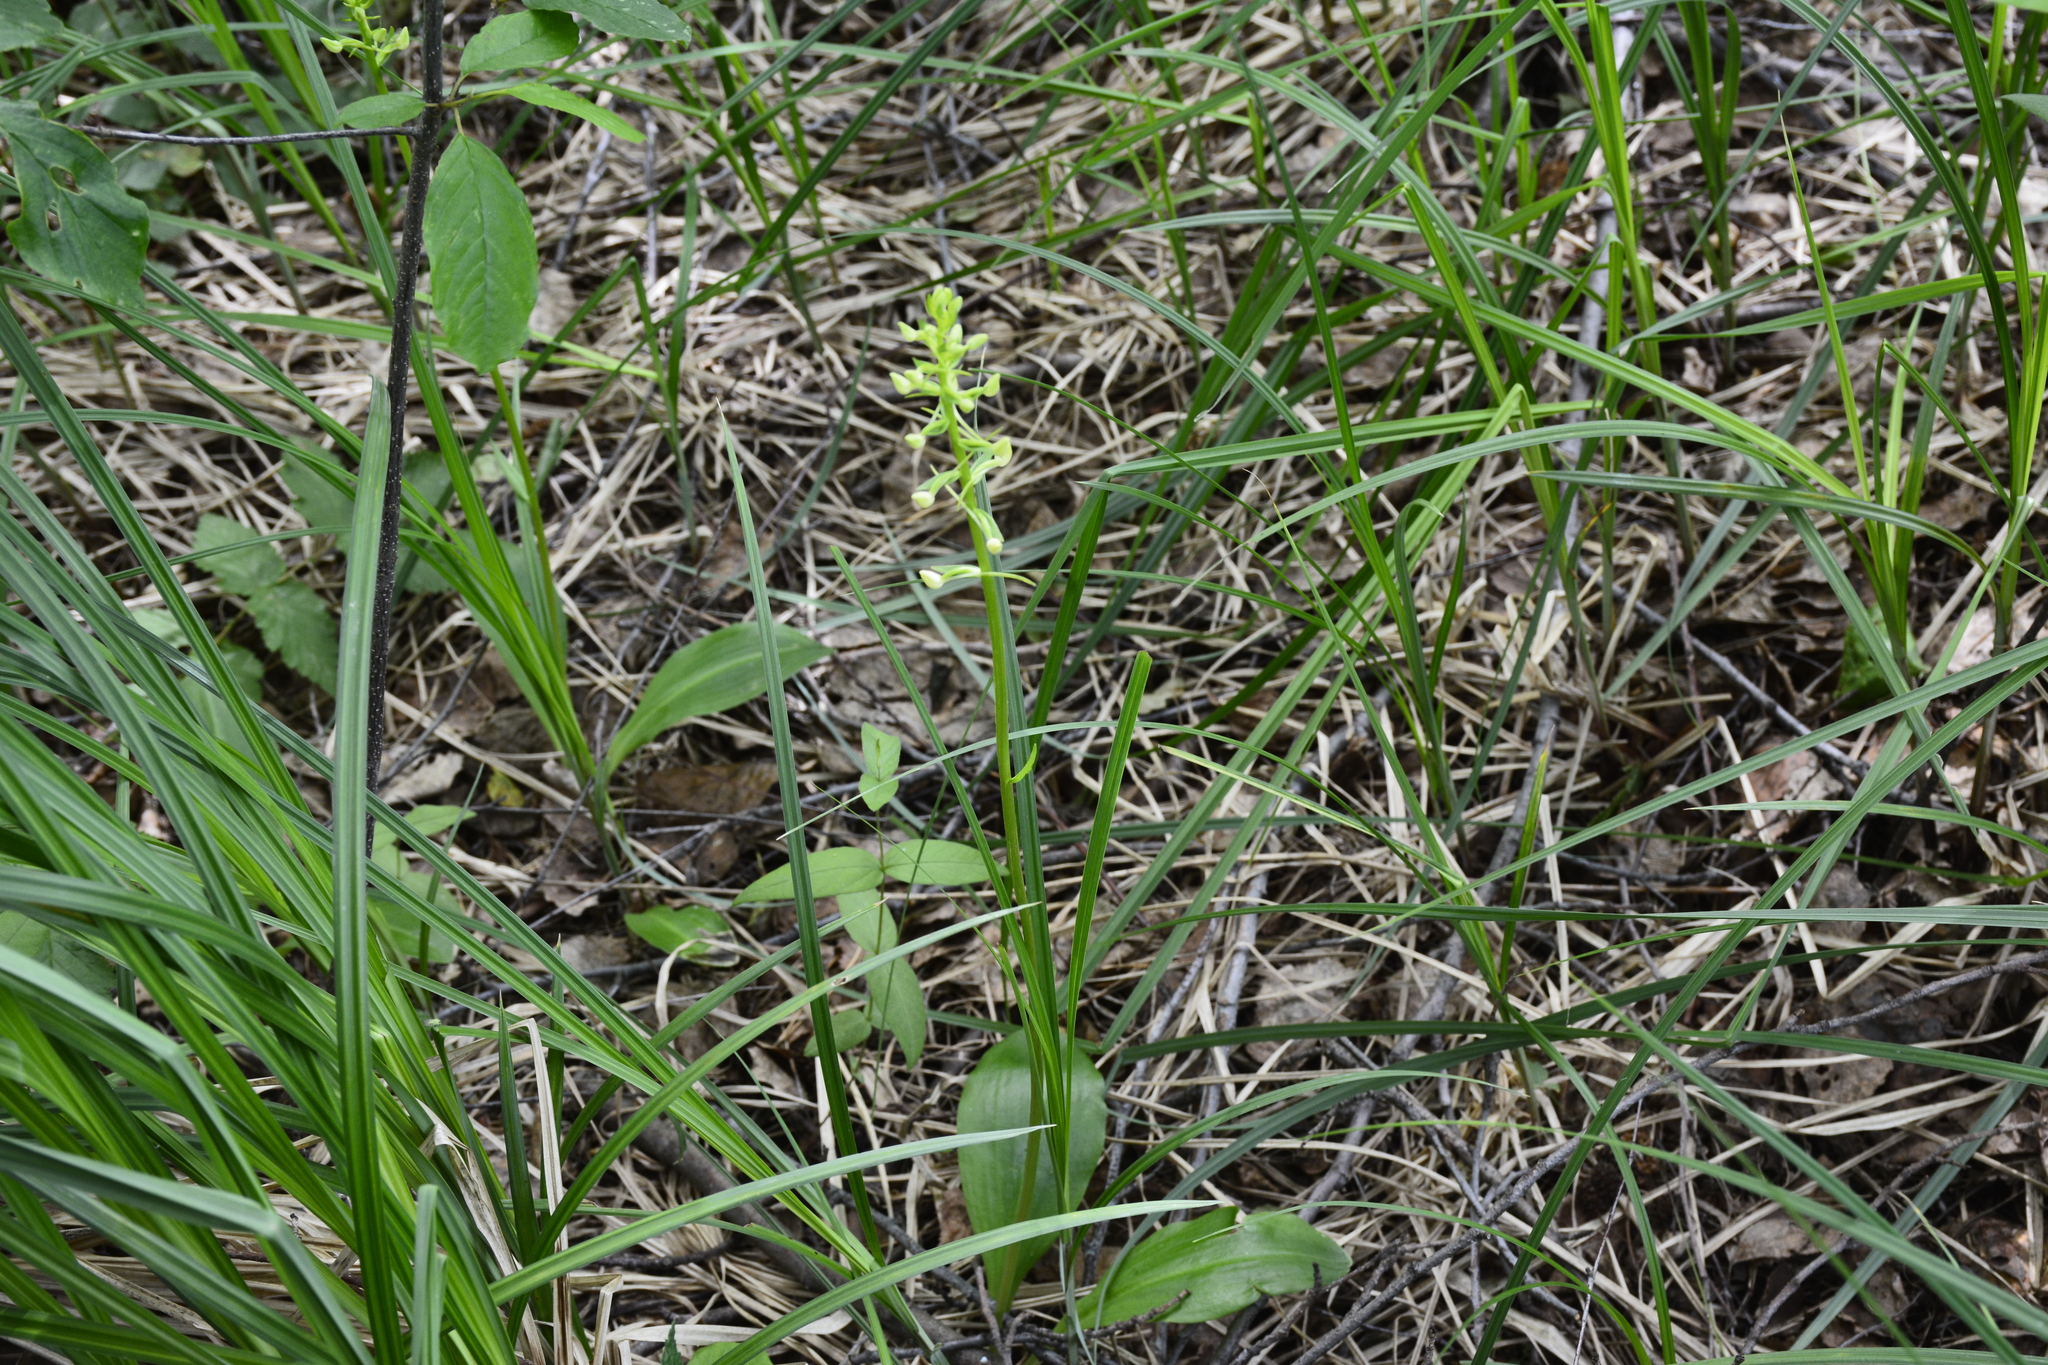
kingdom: Plantae
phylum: Tracheophyta
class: Liliopsida
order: Asparagales
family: Orchidaceae
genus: Platanthera
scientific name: Platanthera
